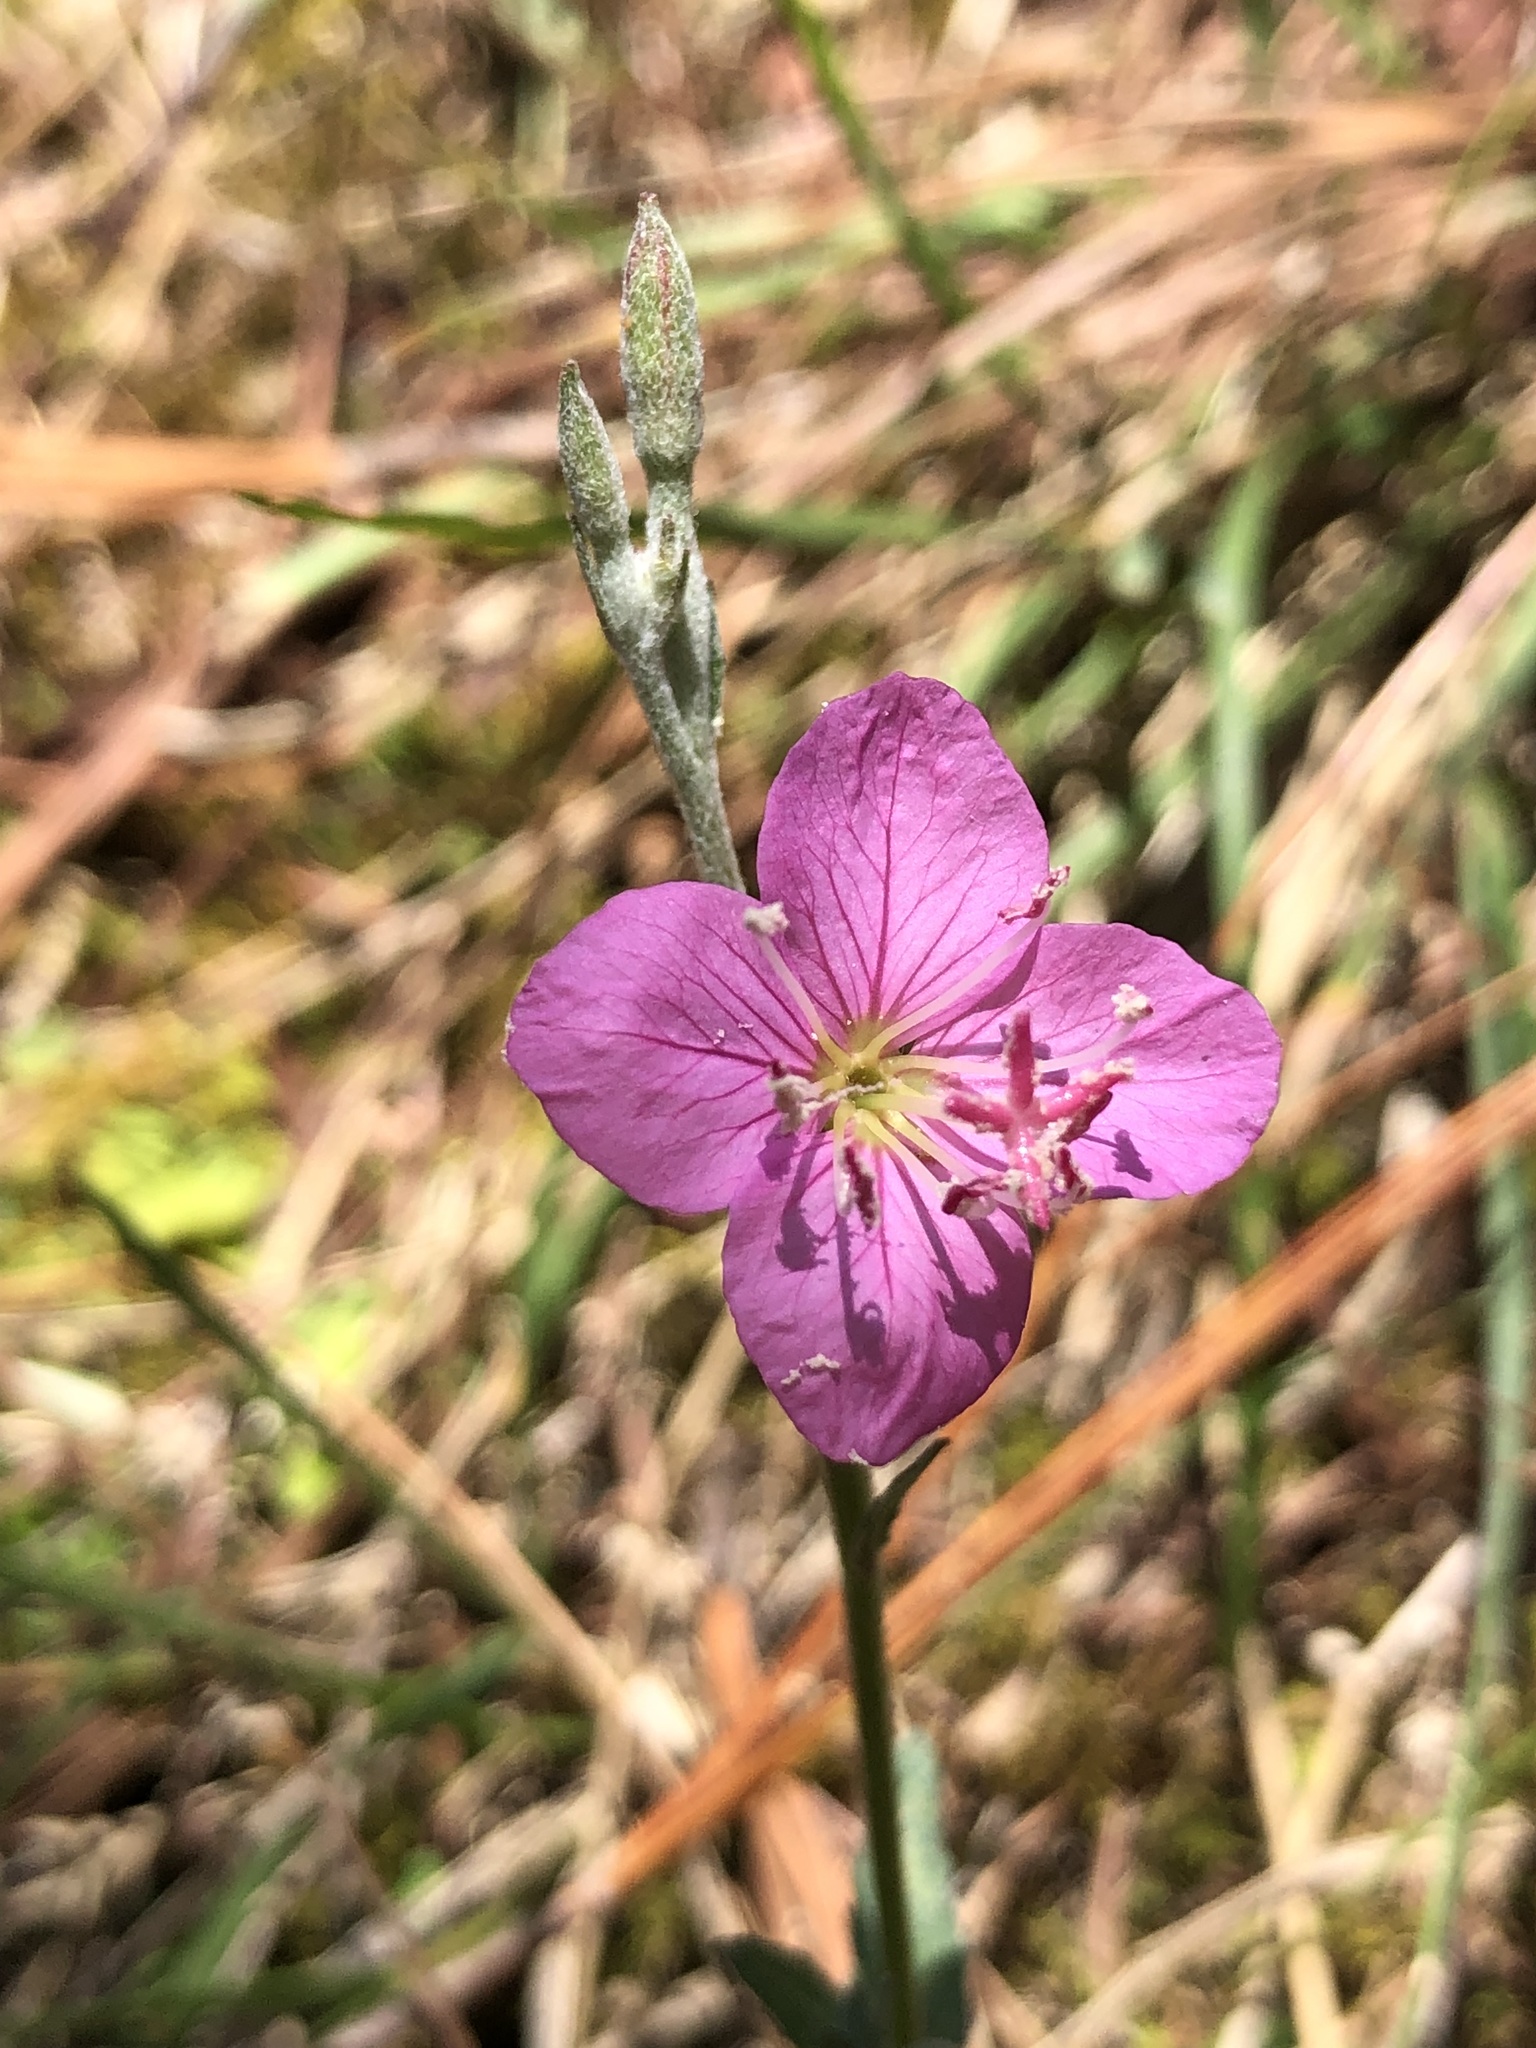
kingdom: Plantae
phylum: Tracheophyta
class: Magnoliopsida
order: Myrtales
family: Onagraceae
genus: Oenothera
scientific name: Oenothera rosea
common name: Rosy evening-primrose
